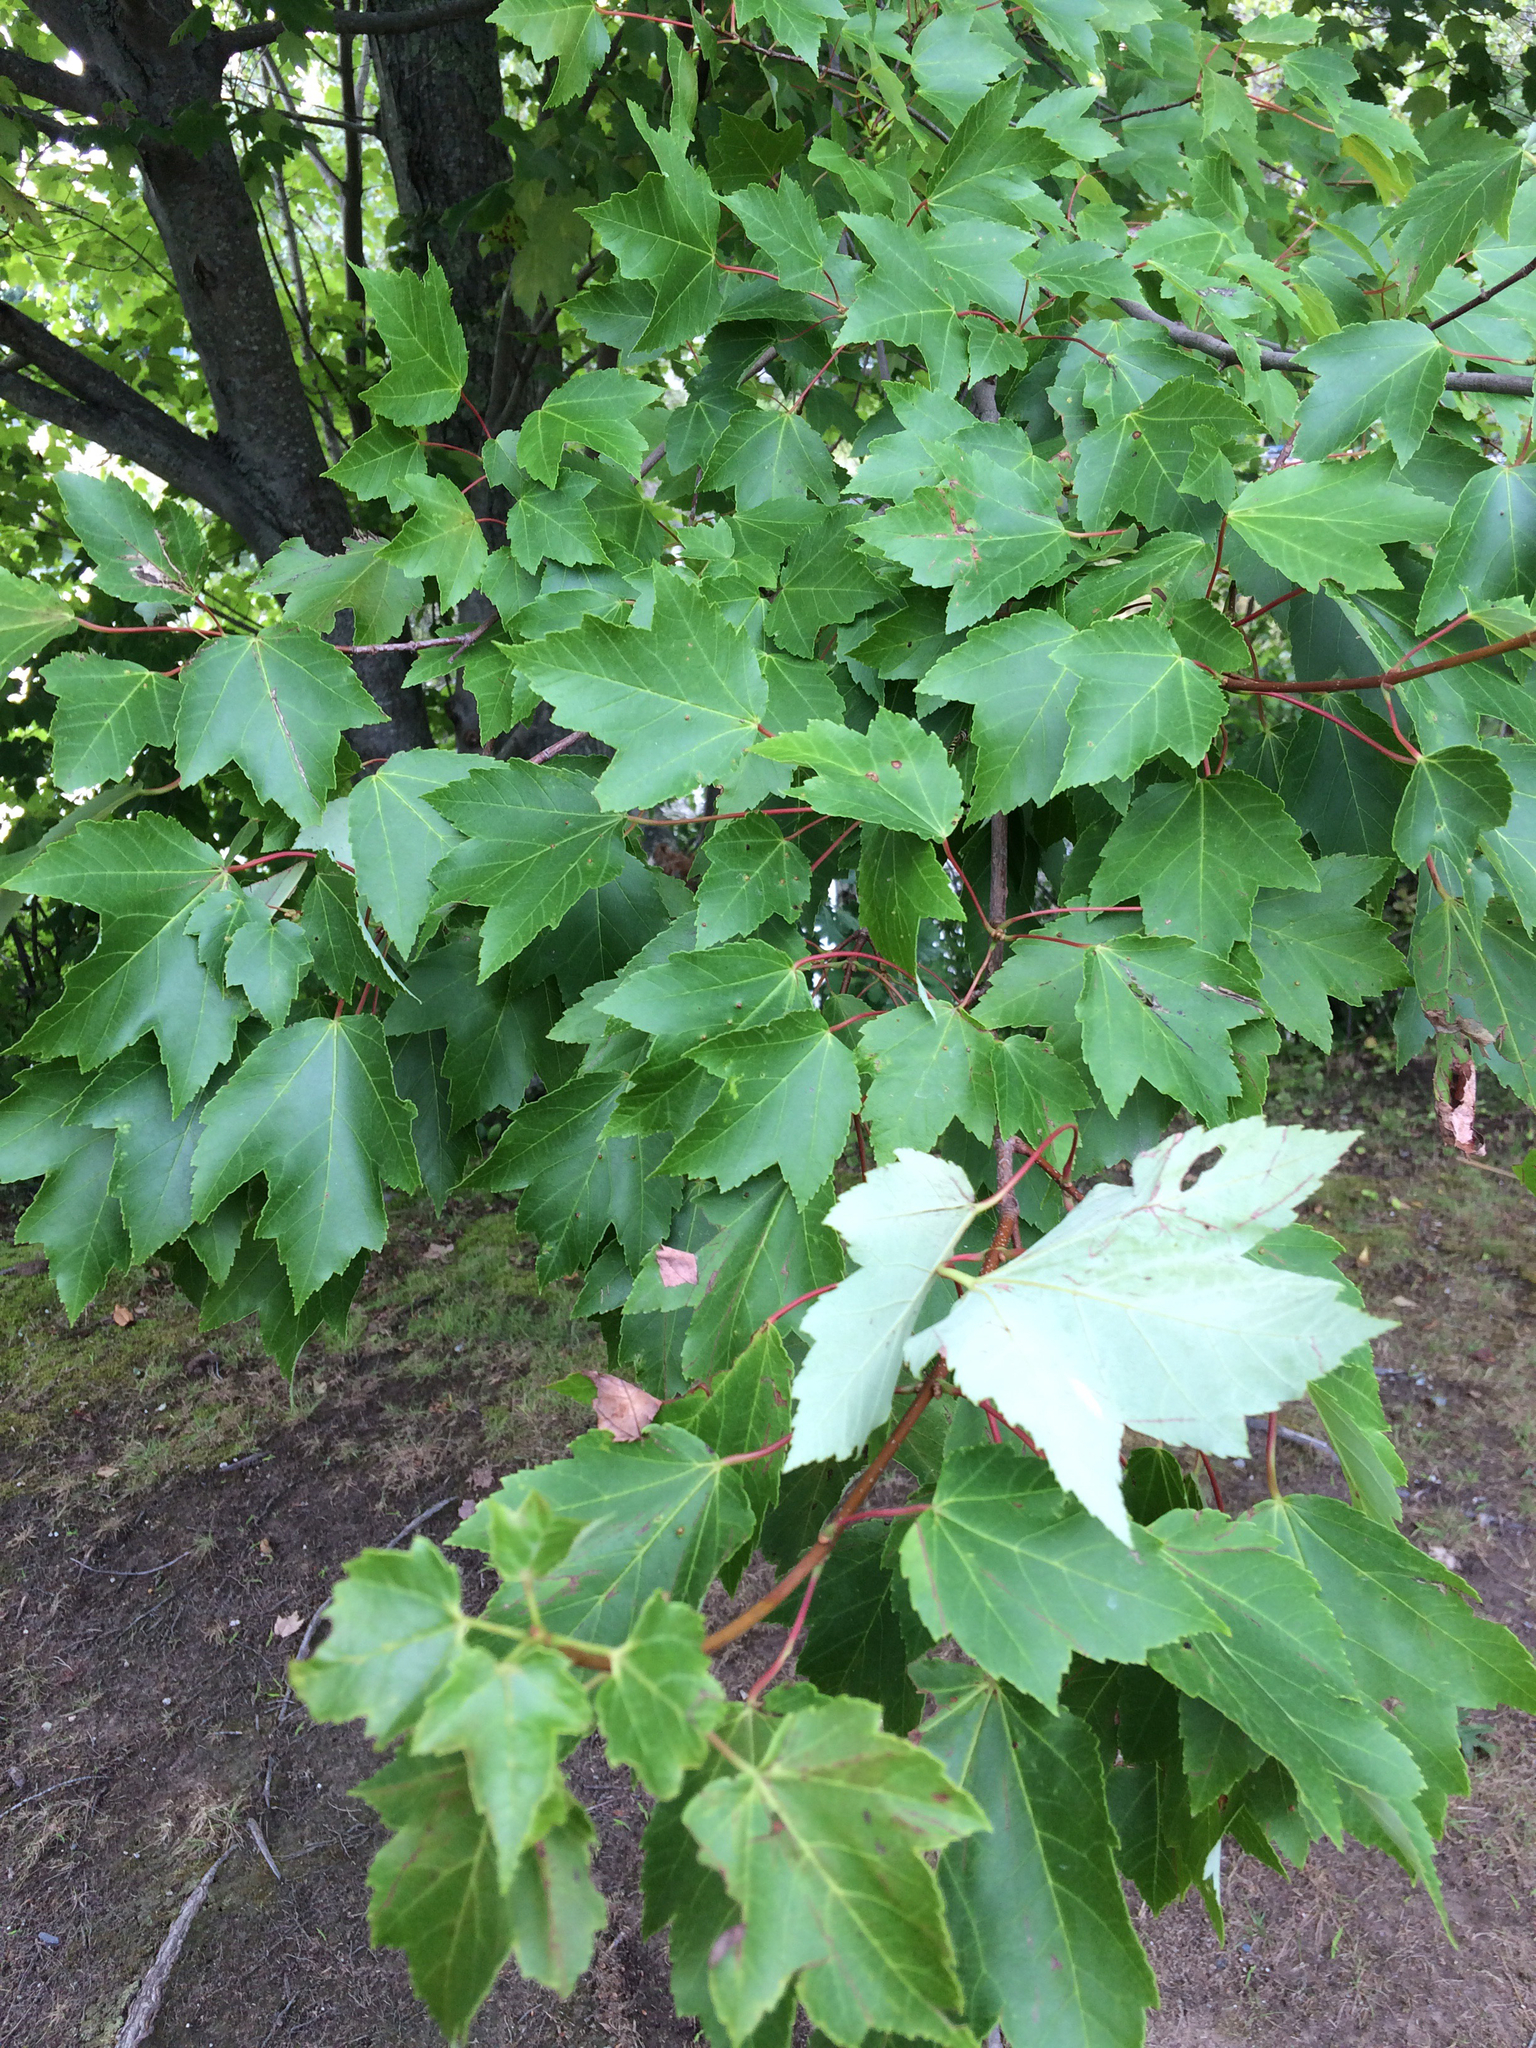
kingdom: Plantae
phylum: Tracheophyta
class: Magnoliopsida
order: Sapindales
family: Sapindaceae
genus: Acer
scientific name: Acer rubrum
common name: Red maple
